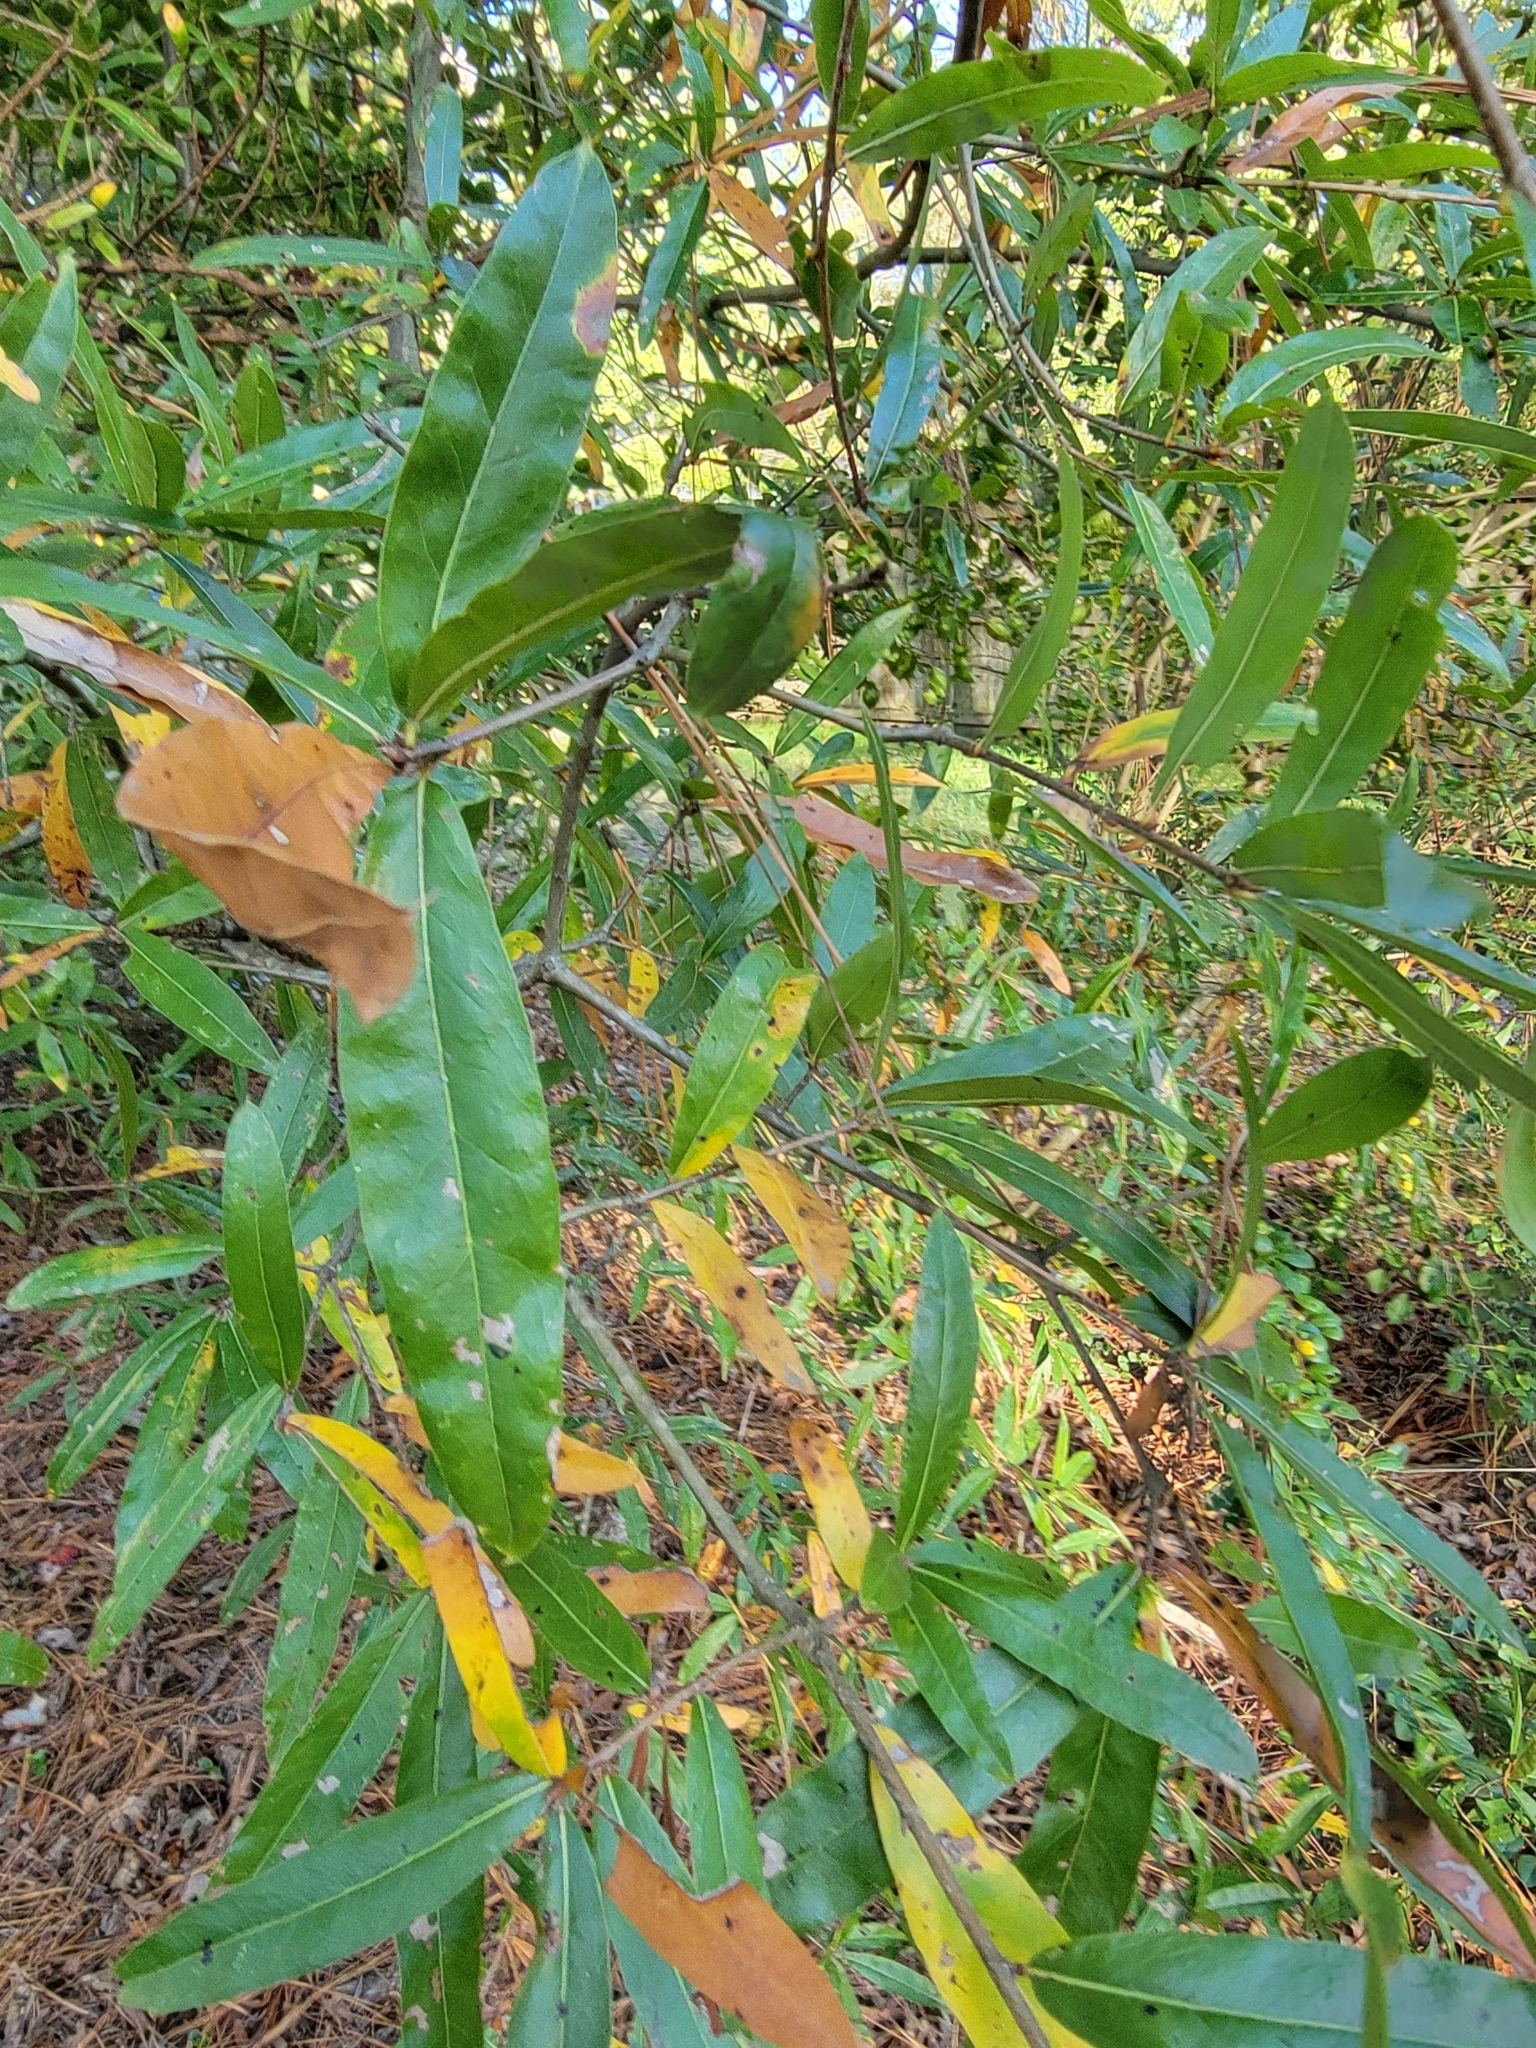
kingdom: Plantae
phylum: Tracheophyta
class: Magnoliopsida
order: Fagales
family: Fagaceae
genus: Quercus
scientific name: Quercus phellos
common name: Willow oak
